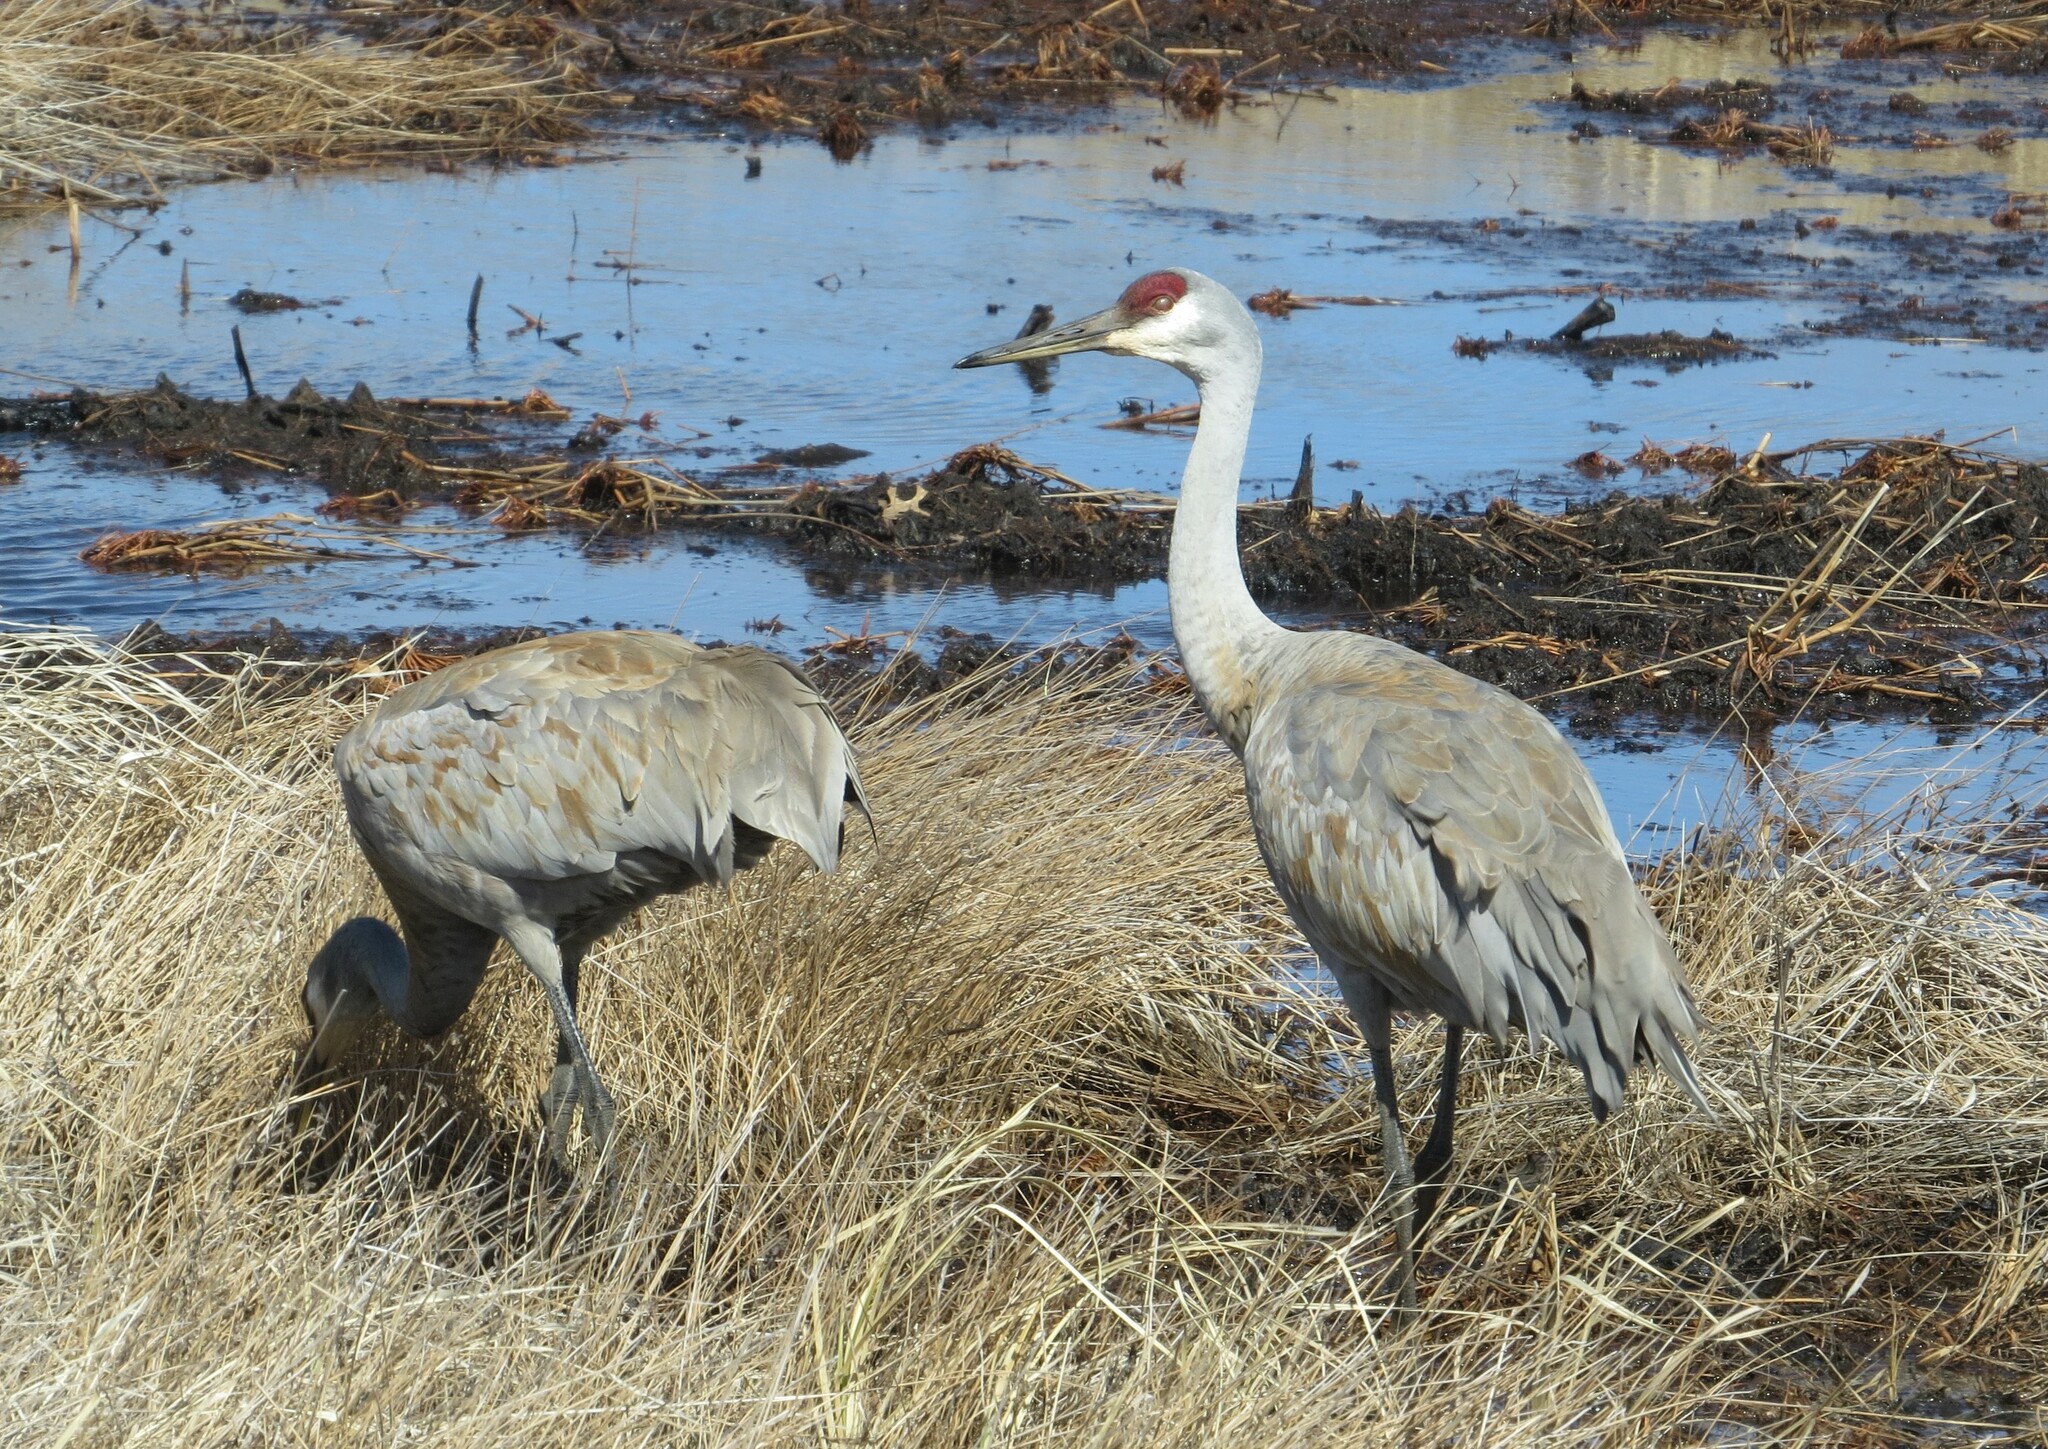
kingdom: Animalia
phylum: Chordata
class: Aves
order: Gruiformes
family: Gruidae
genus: Grus
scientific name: Grus canadensis
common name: Sandhill crane
